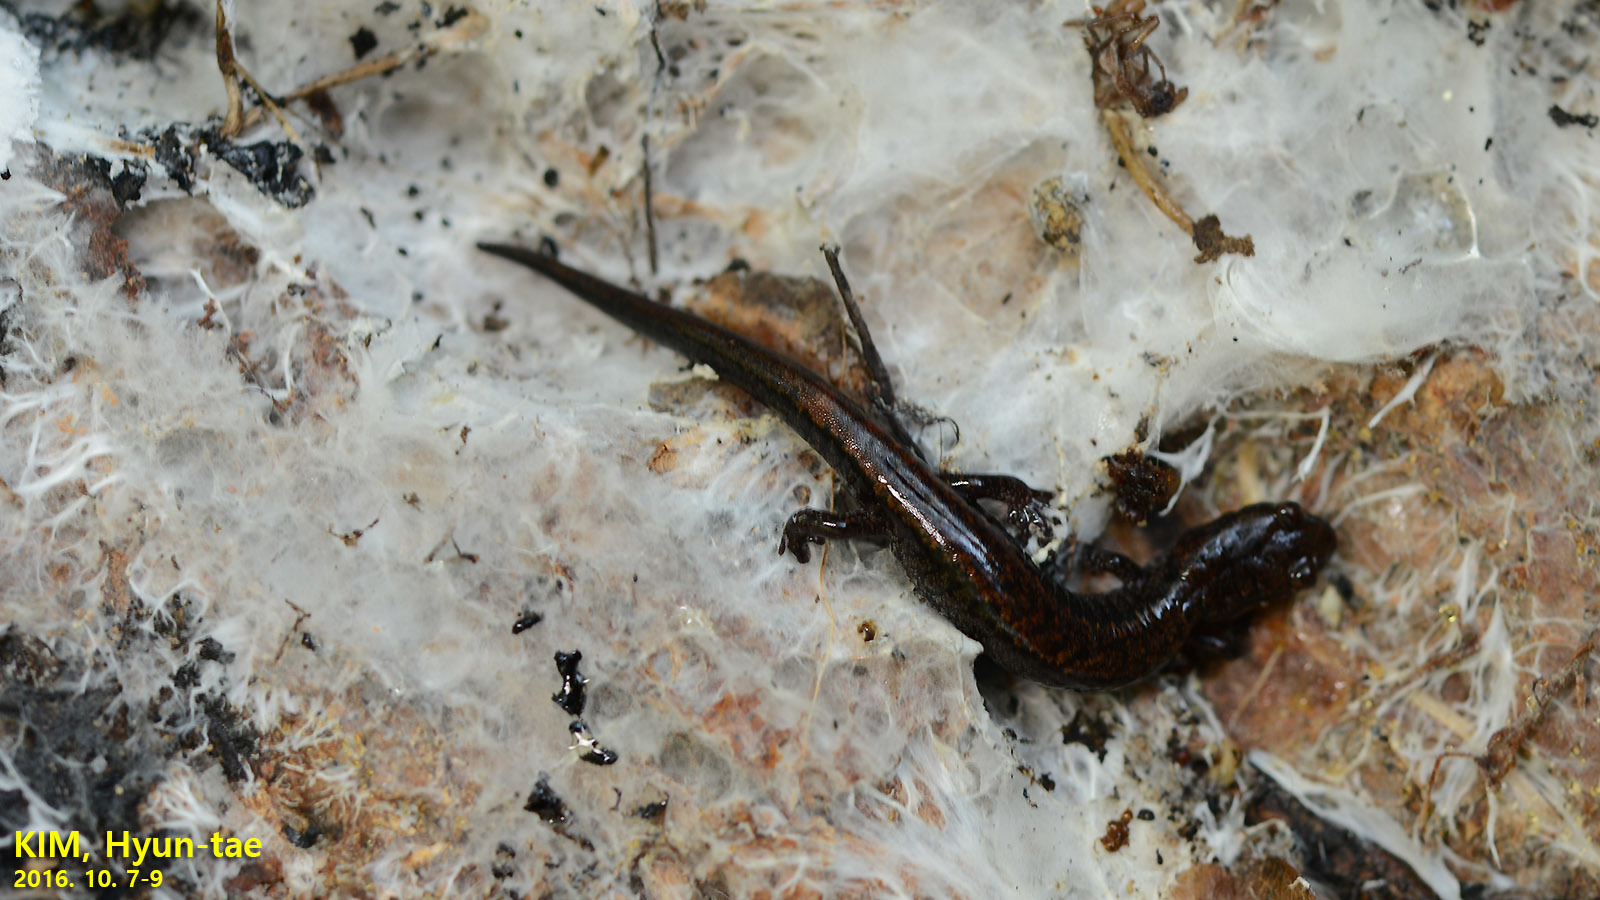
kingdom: Animalia
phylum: Chordata
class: Amphibia
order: Caudata
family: Plethodontidae
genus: Karsenia
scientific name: Karsenia koreana
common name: Korean crevice salamander
